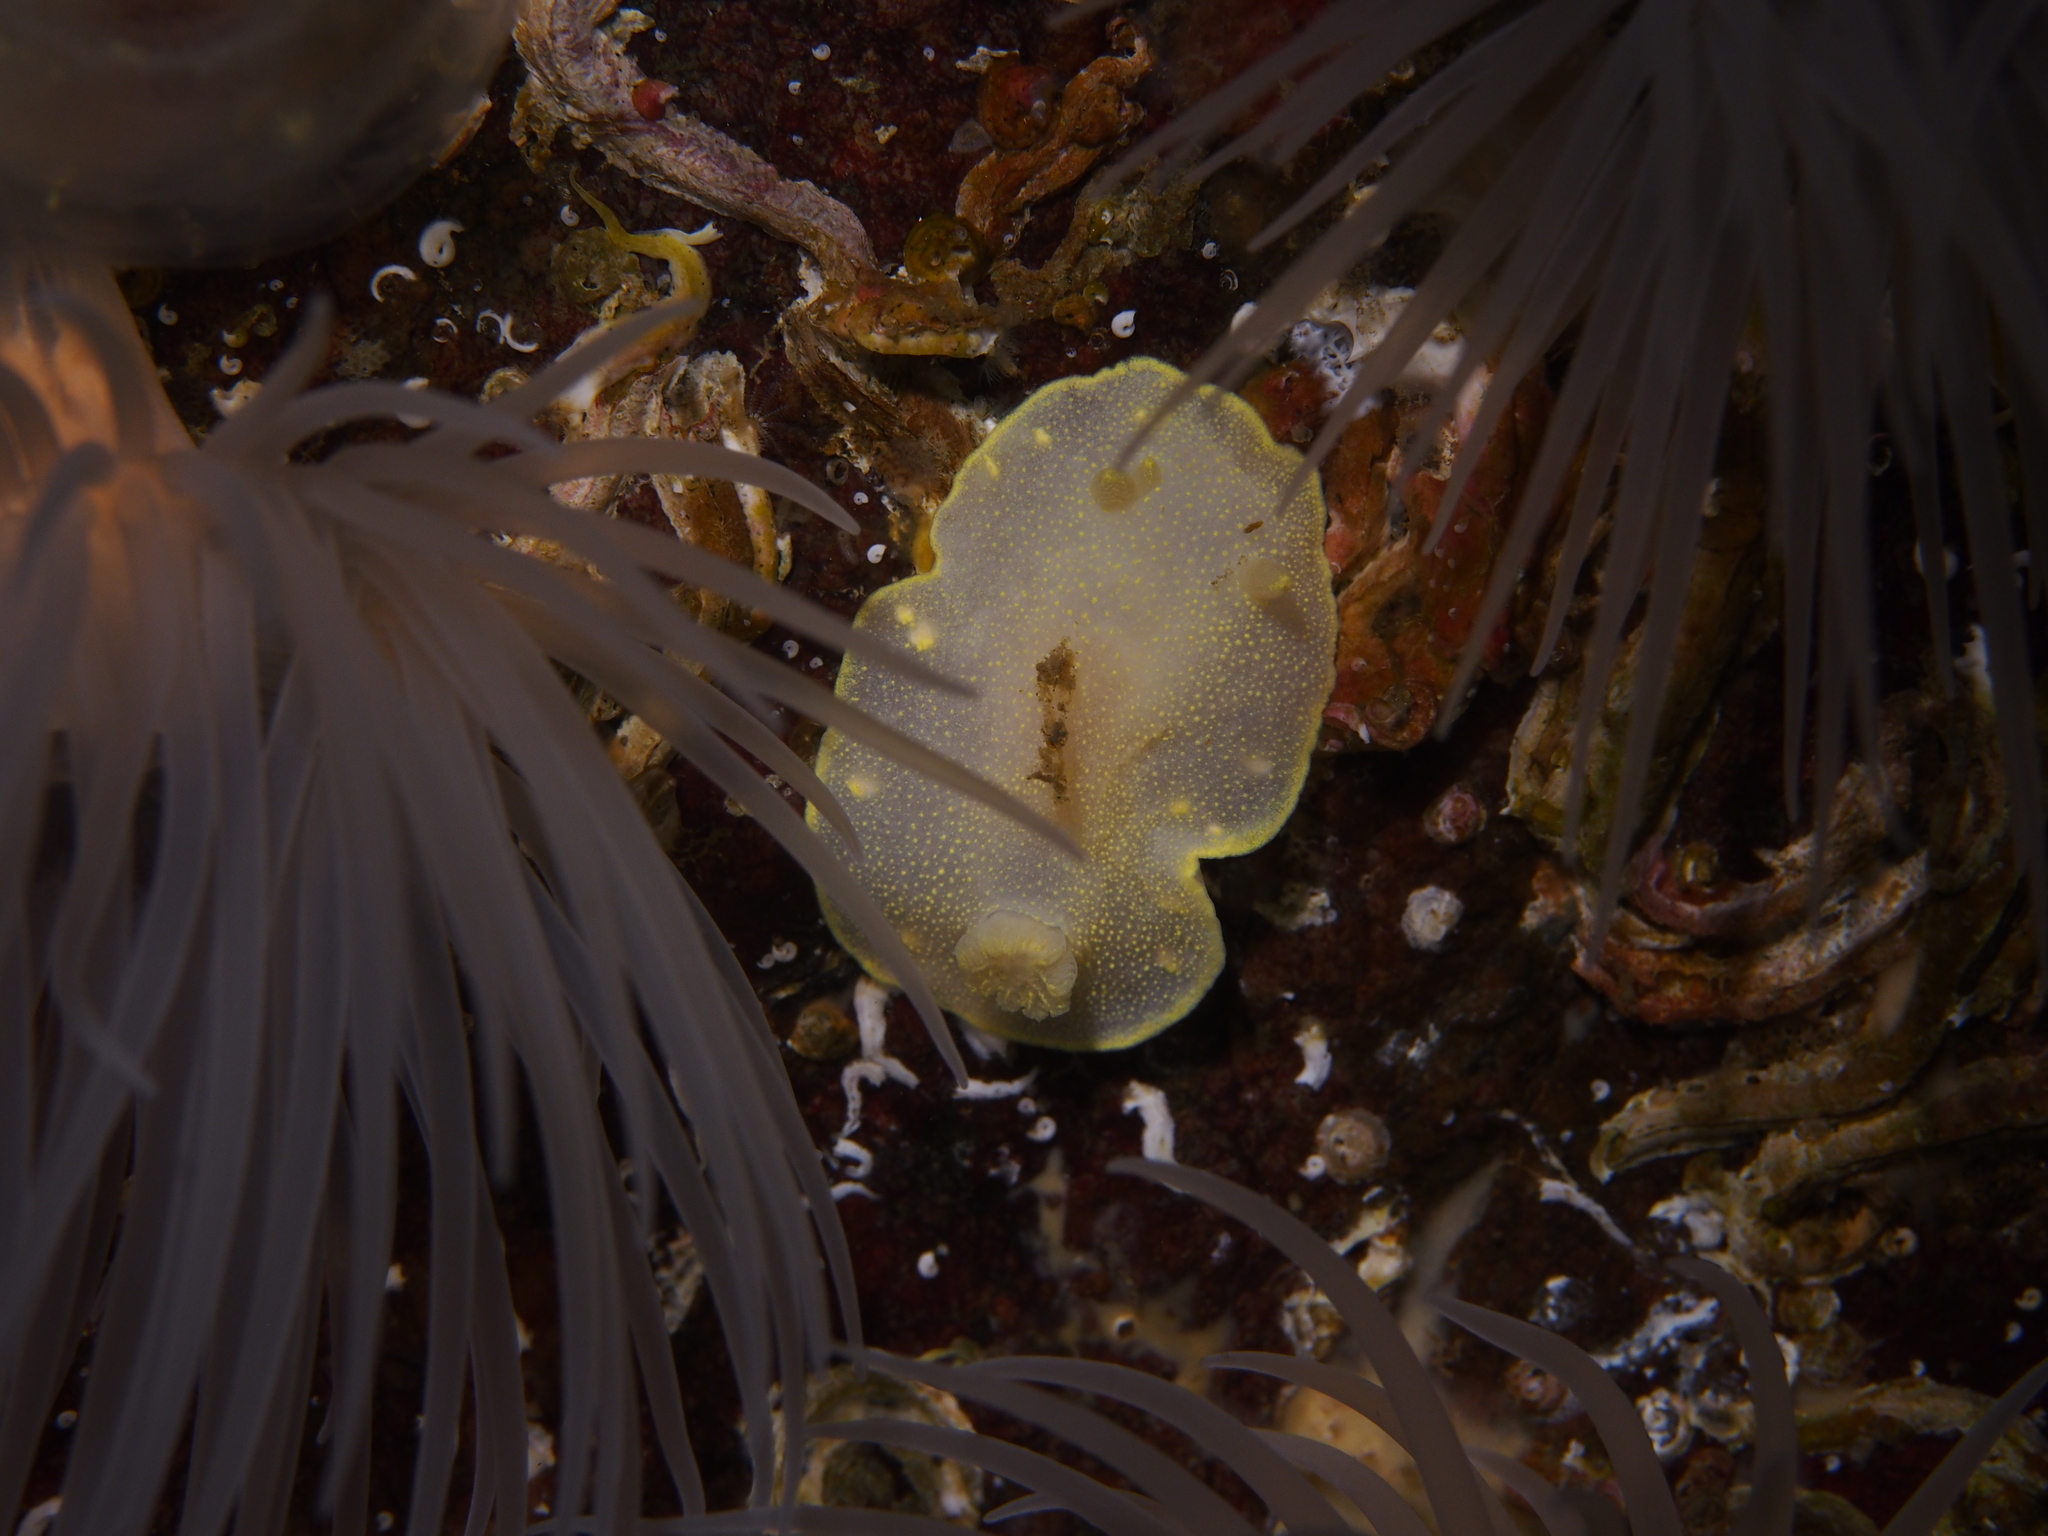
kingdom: Animalia
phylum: Mollusca
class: Gastropoda
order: Nudibranchia
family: Cadlinidae
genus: Cadlina
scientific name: Cadlina laevis
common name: White atlantic cadlina
